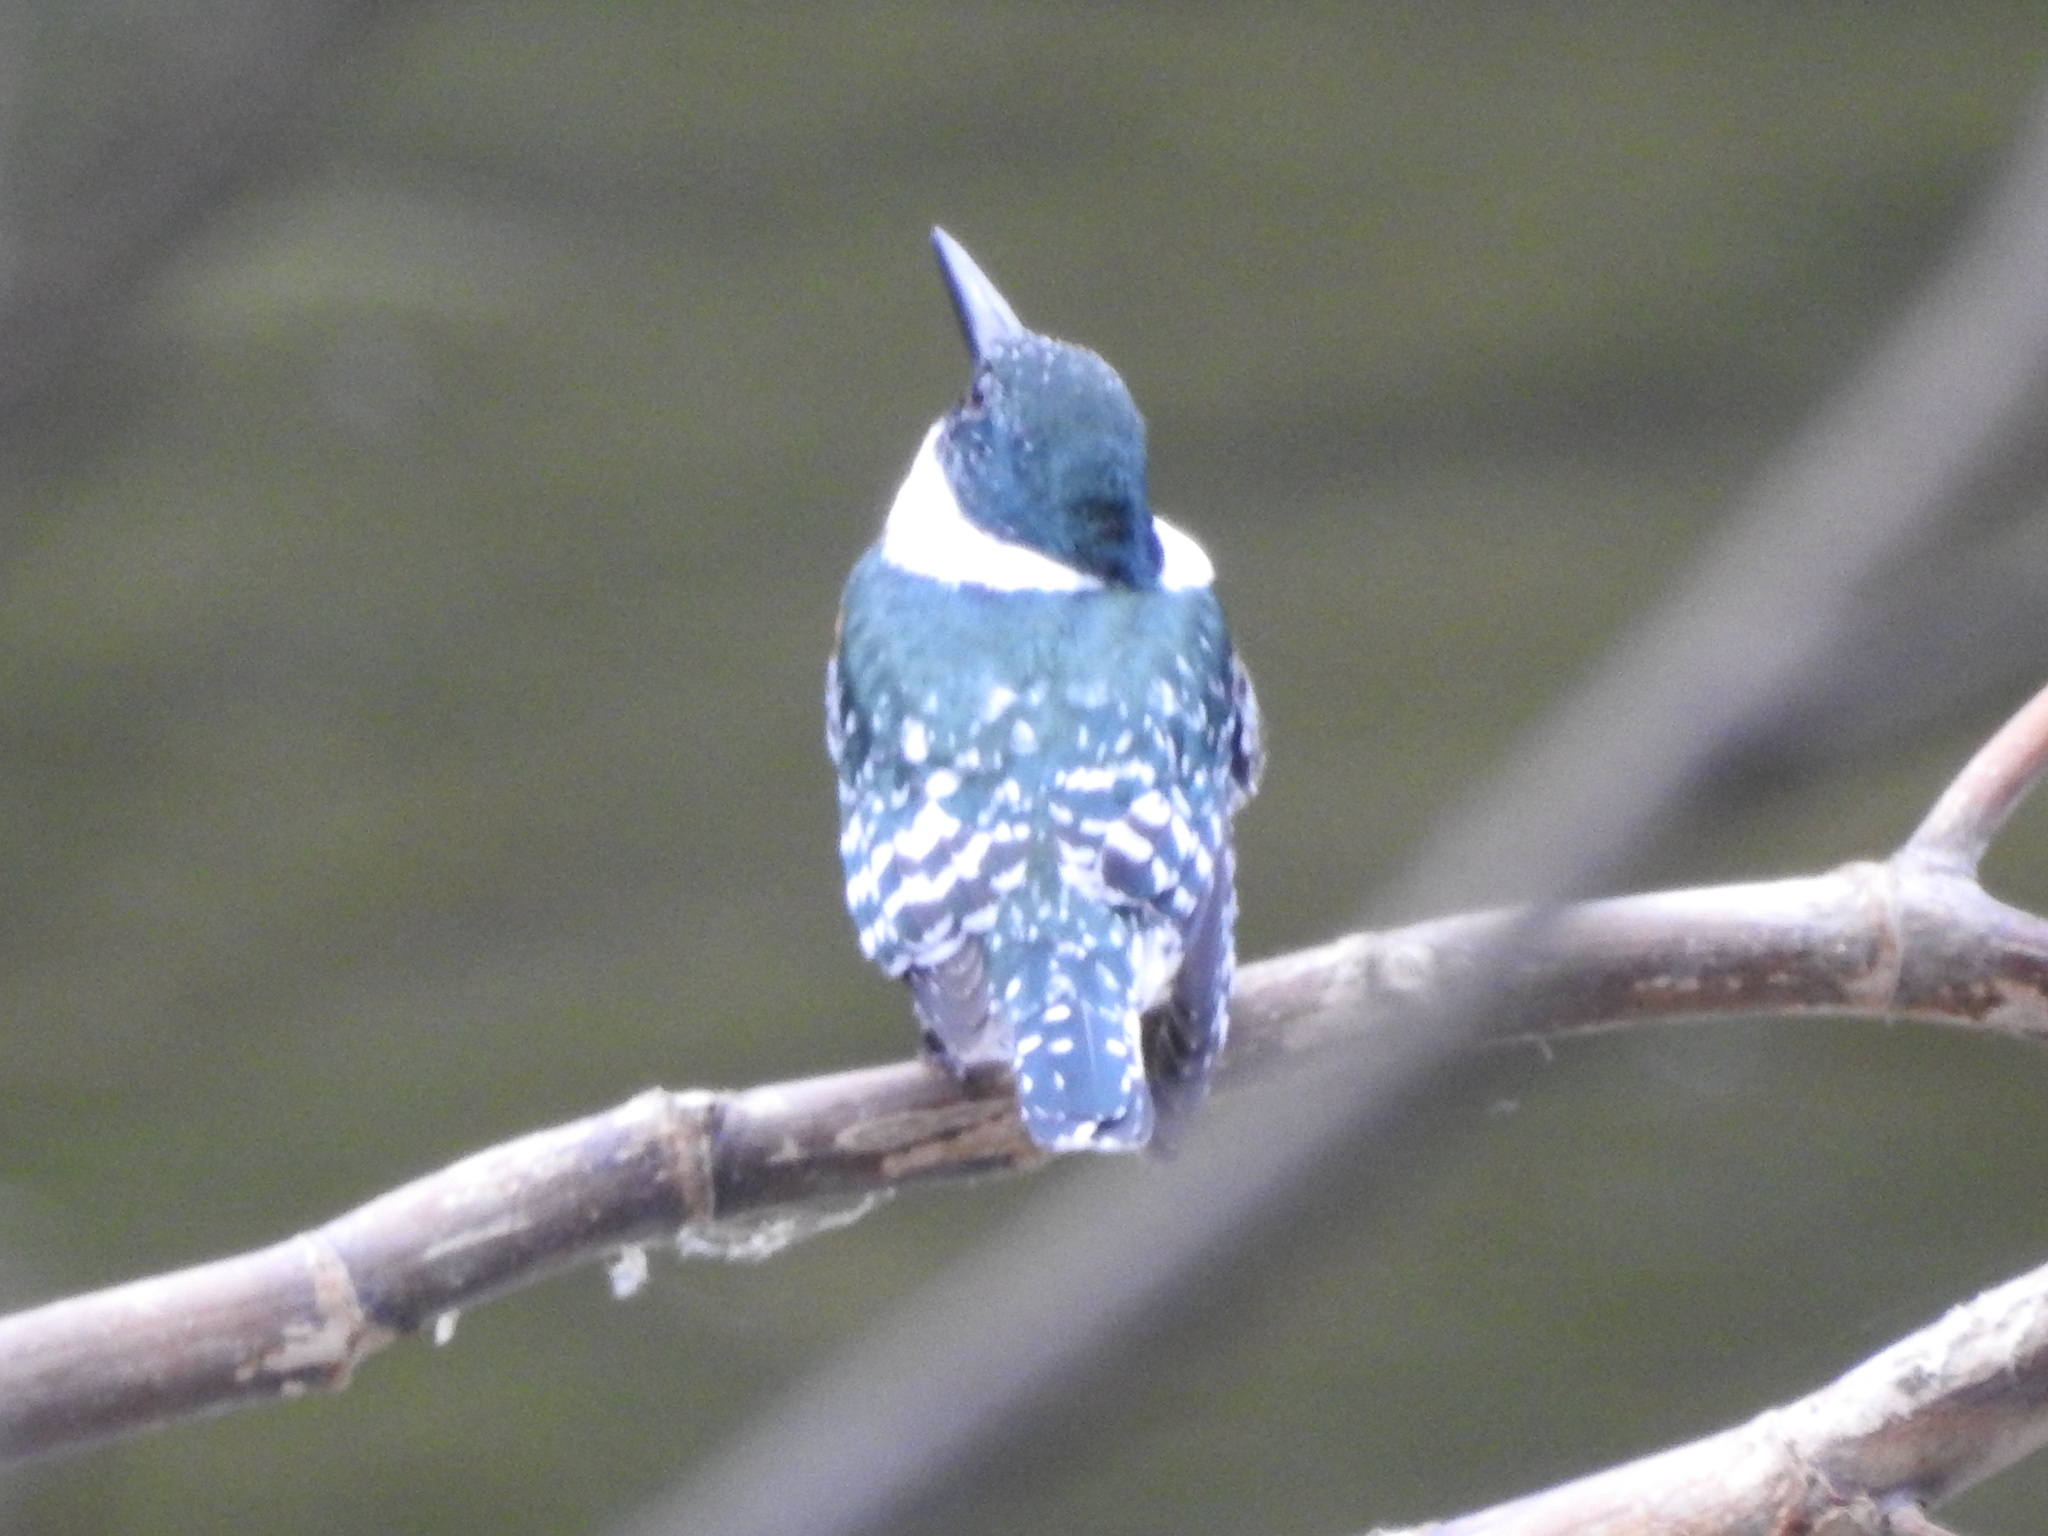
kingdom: Animalia
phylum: Chordata
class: Aves
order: Coraciiformes
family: Alcedinidae
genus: Chloroceryle
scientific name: Chloroceryle americana
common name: Green kingfisher
